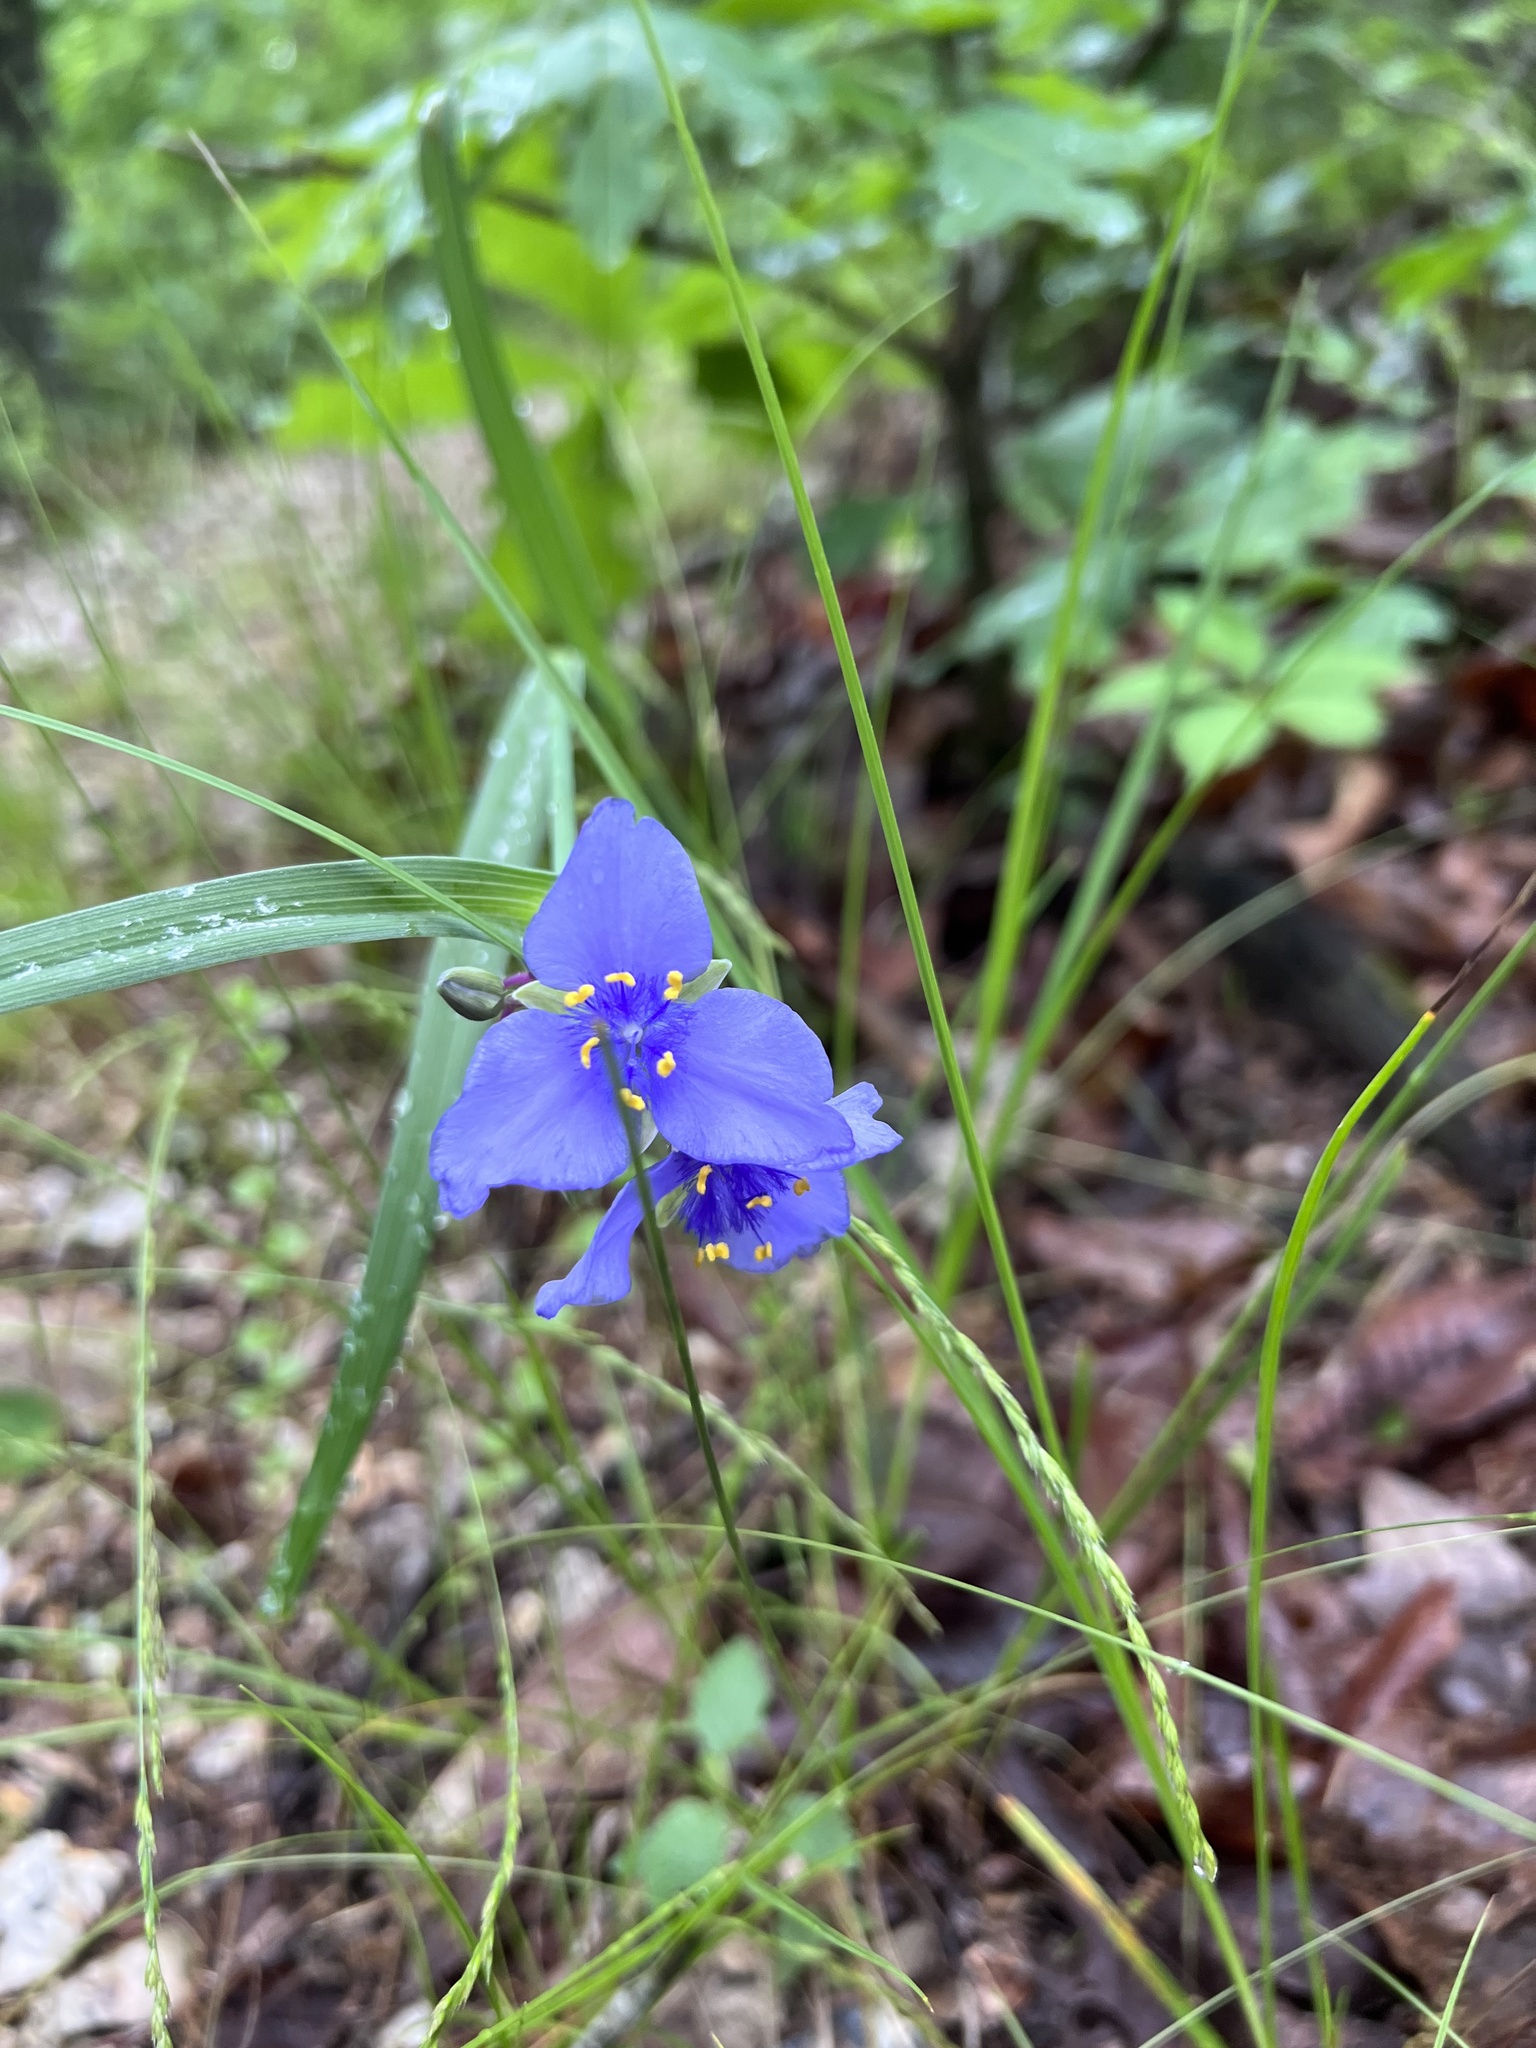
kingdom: Plantae
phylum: Tracheophyta
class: Liliopsida
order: Commelinales
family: Commelinaceae
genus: Tradescantia
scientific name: Tradescantia ohiensis
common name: Ohio spiderwort
